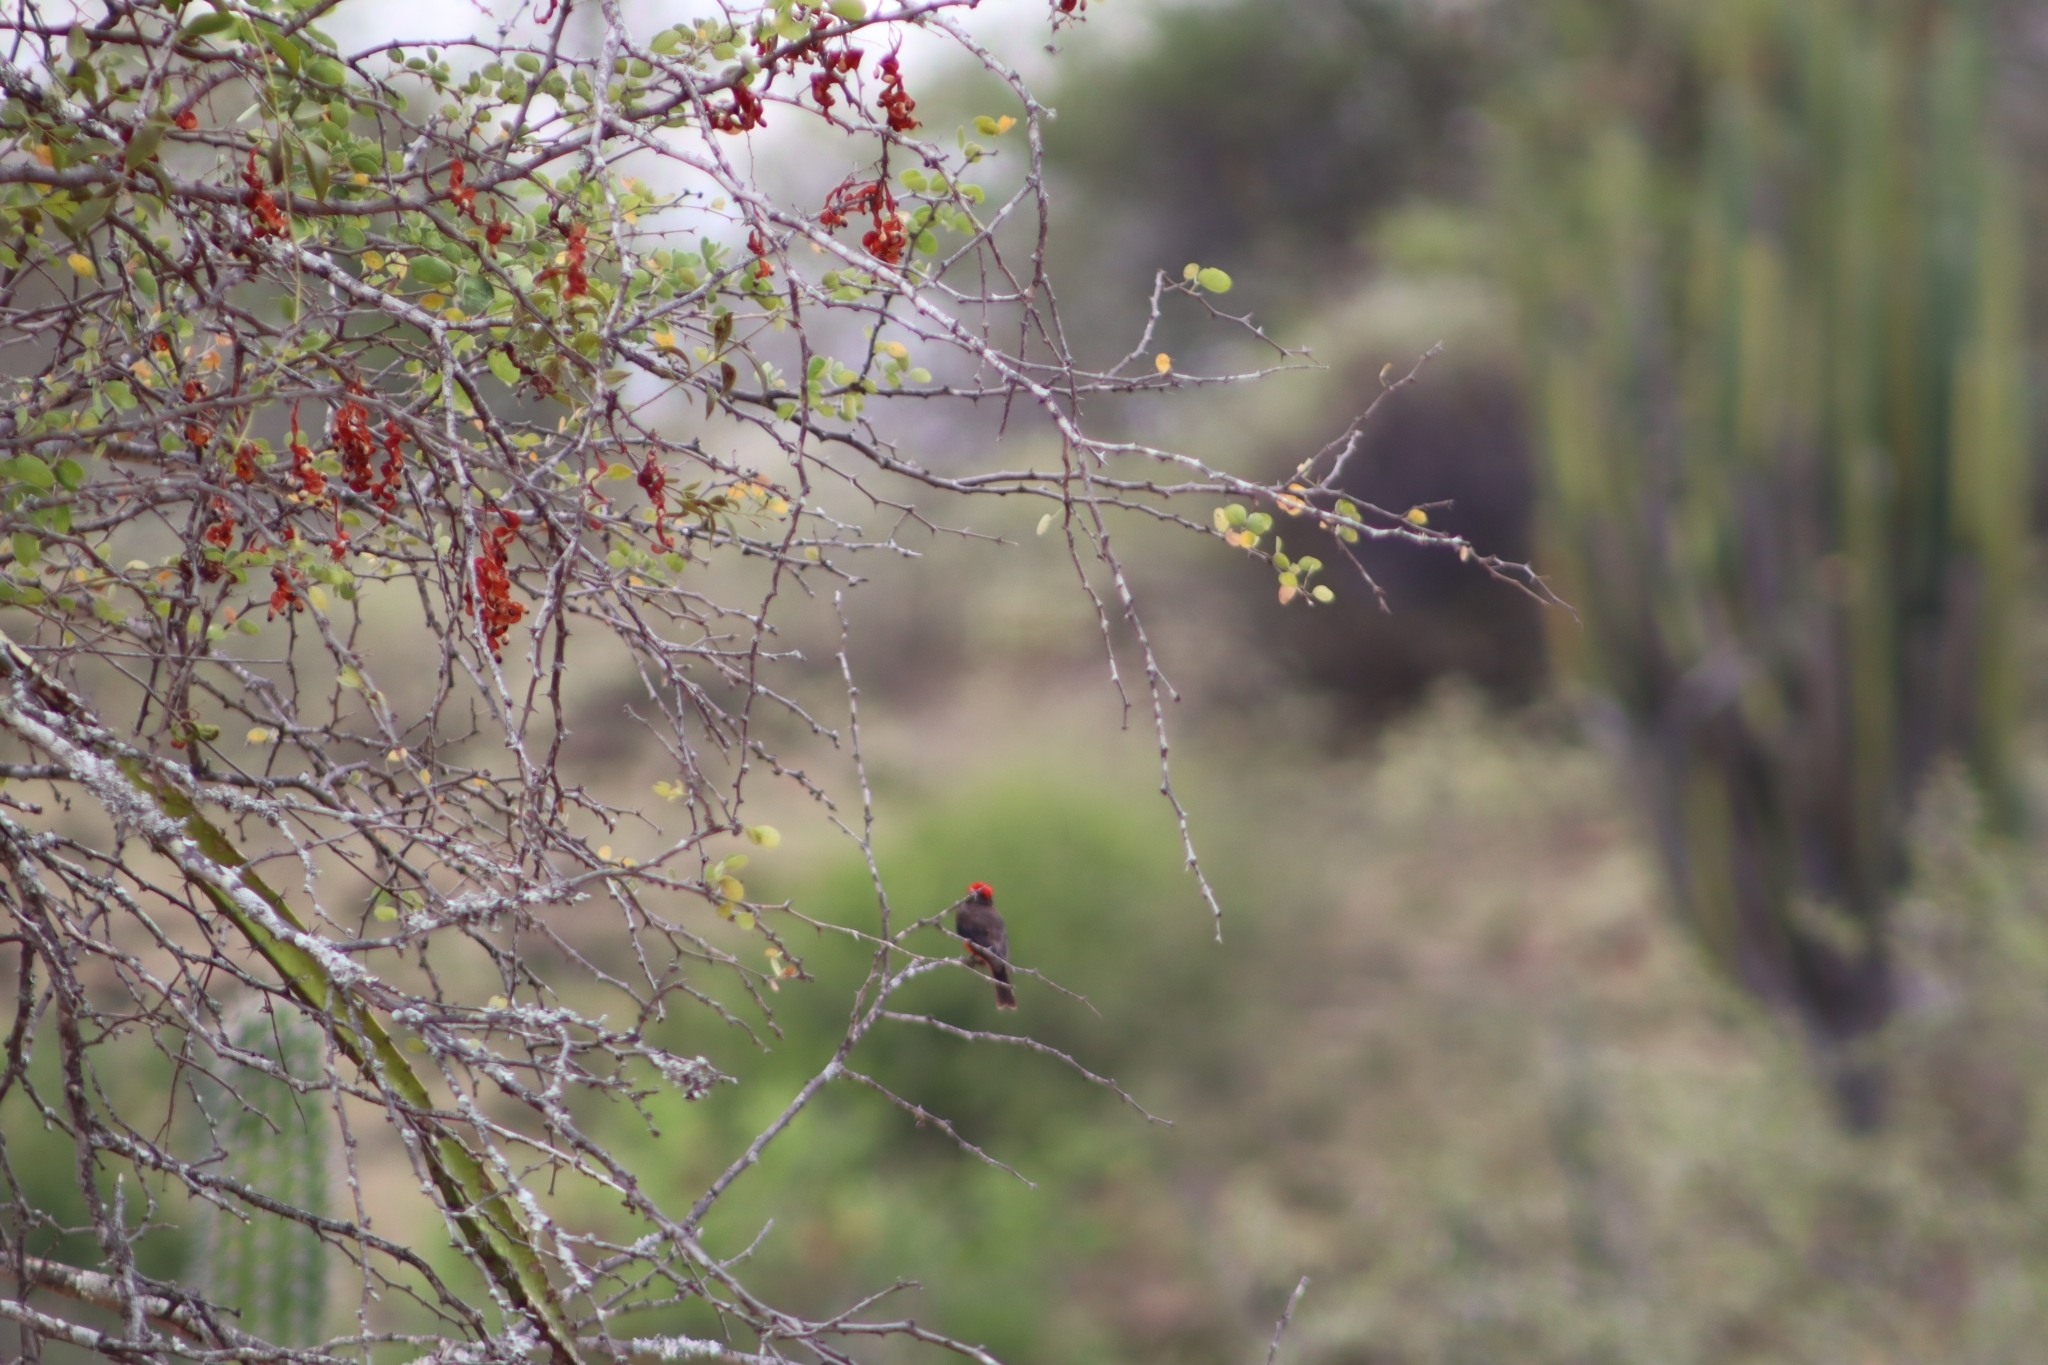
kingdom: Animalia
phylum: Chordata
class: Aves
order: Passeriformes
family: Tyrannidae
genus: Pyrocephalus
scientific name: Pyrocephalus rubinus
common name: Vermilion flycatcher
